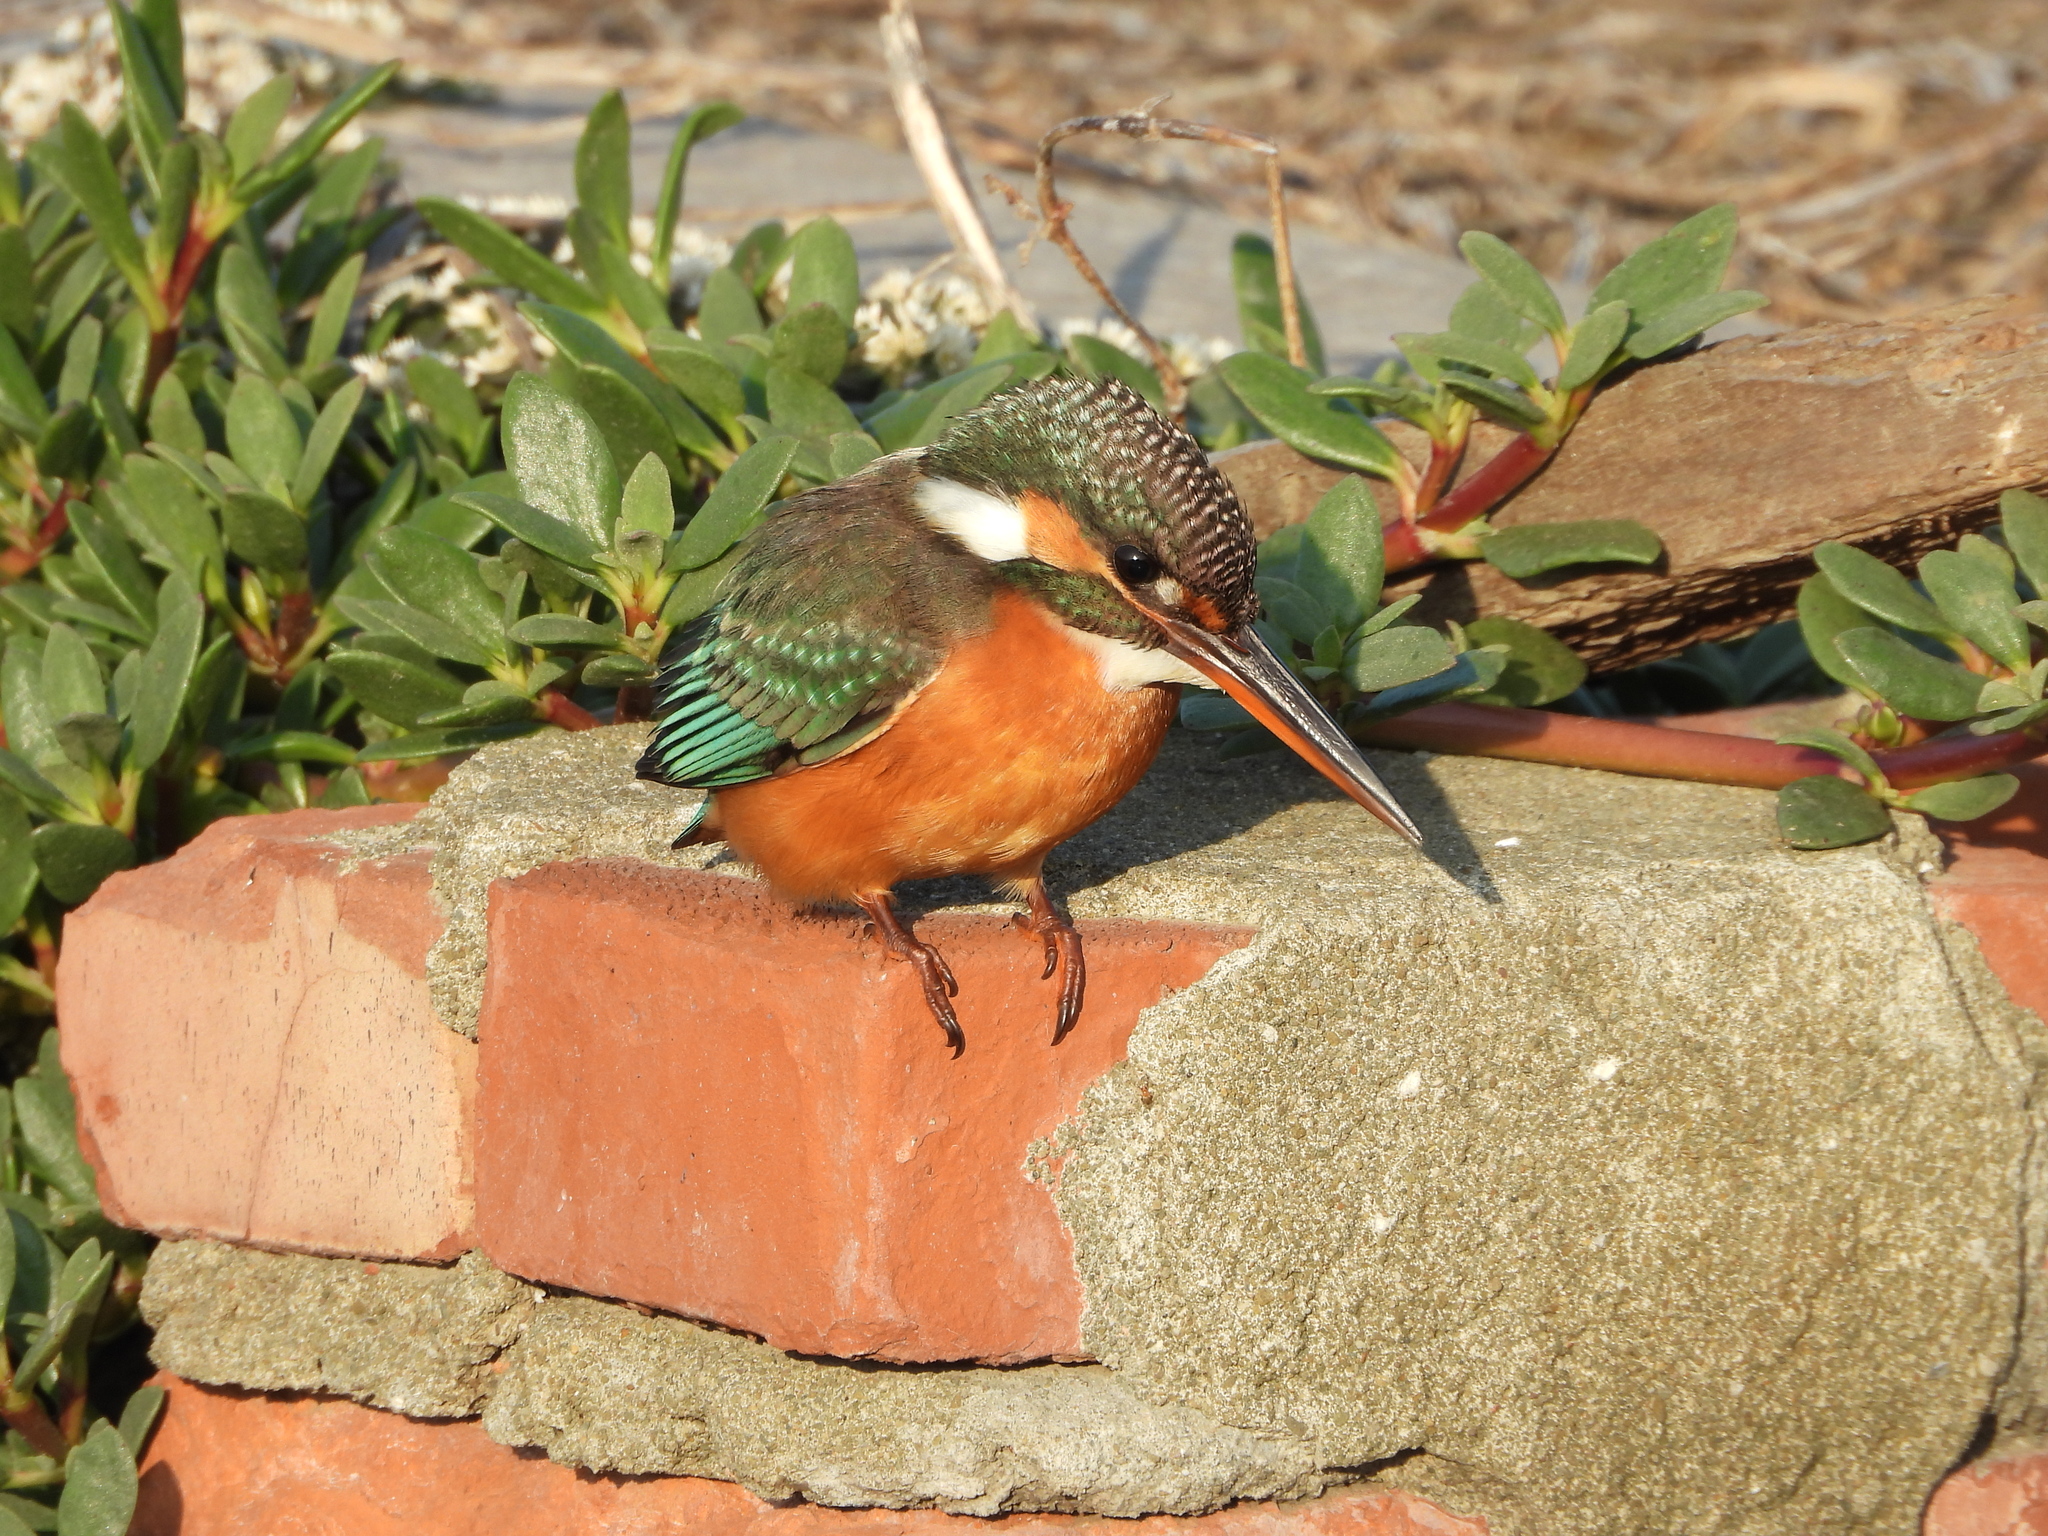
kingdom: Animalia
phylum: Chordata
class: Aves
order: Coraciiformes
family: Alcedinidae
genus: Alcedo
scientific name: Alcedo atthis
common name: Common kingfisher
